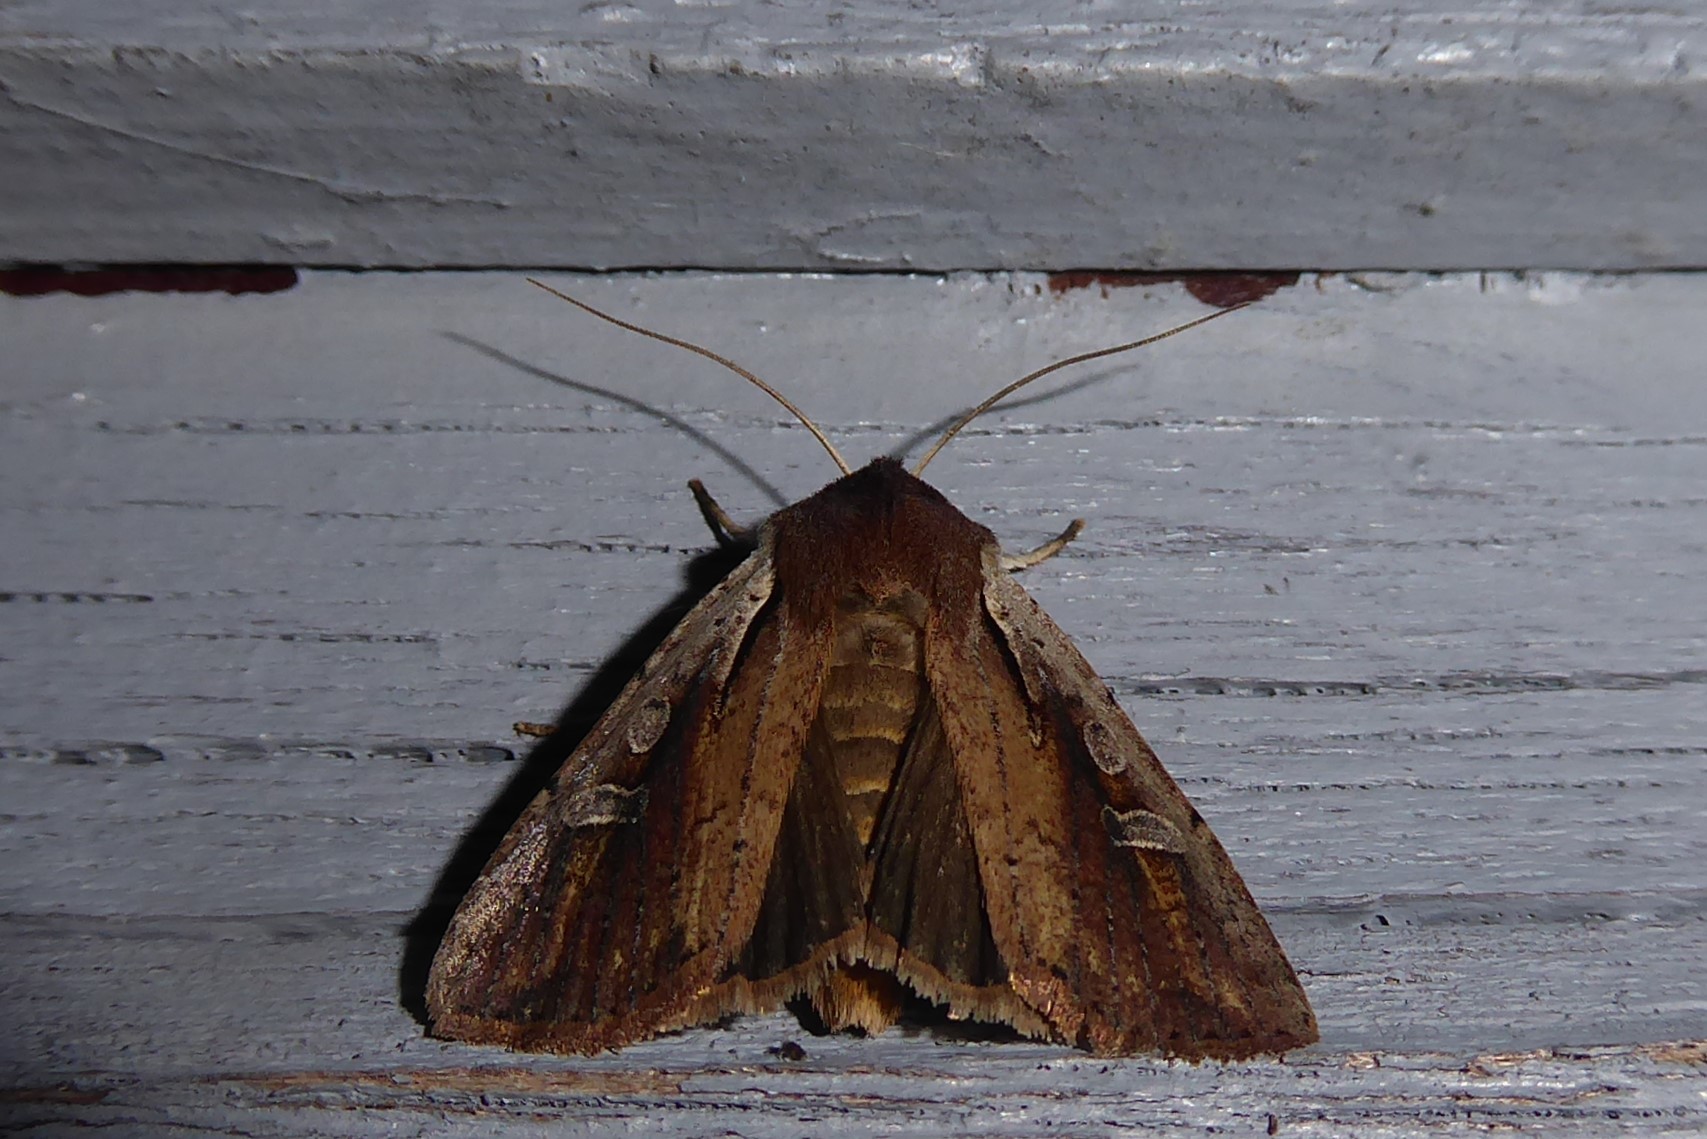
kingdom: Animalia
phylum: Arthropoda
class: Insecta
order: Lepidoptera
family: Noctuidae
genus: Ichneutica
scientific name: Ichneutica atristriga
